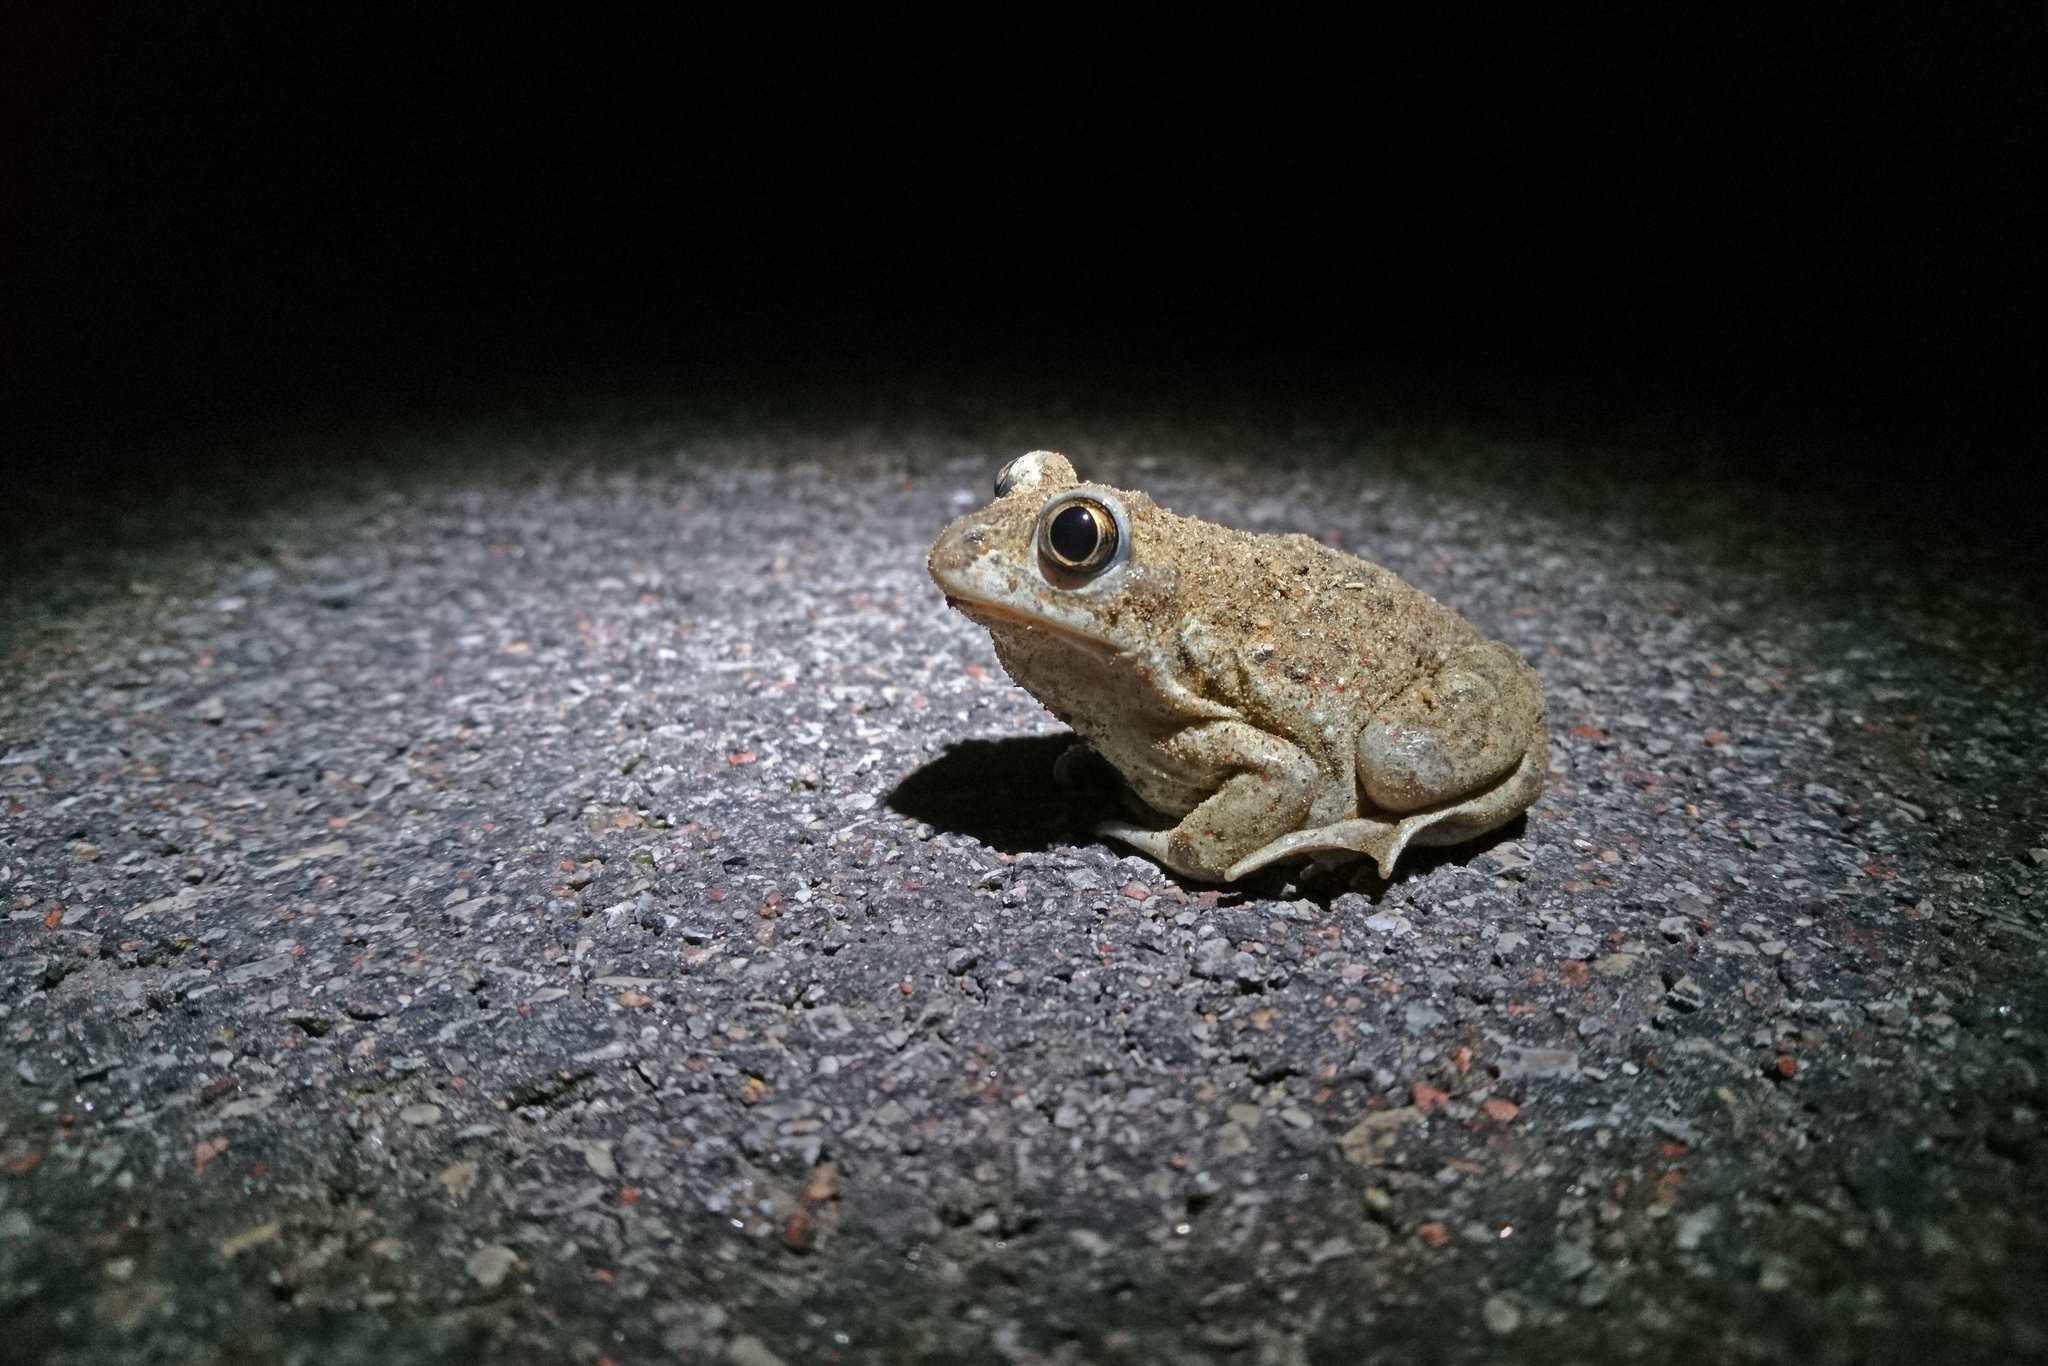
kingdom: Animalia
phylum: Chordata
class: Amphibia
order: Anura
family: Pelobatidae
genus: Pelobates
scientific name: Pelobates fuscus
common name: Common eurasian spadefoot toad
